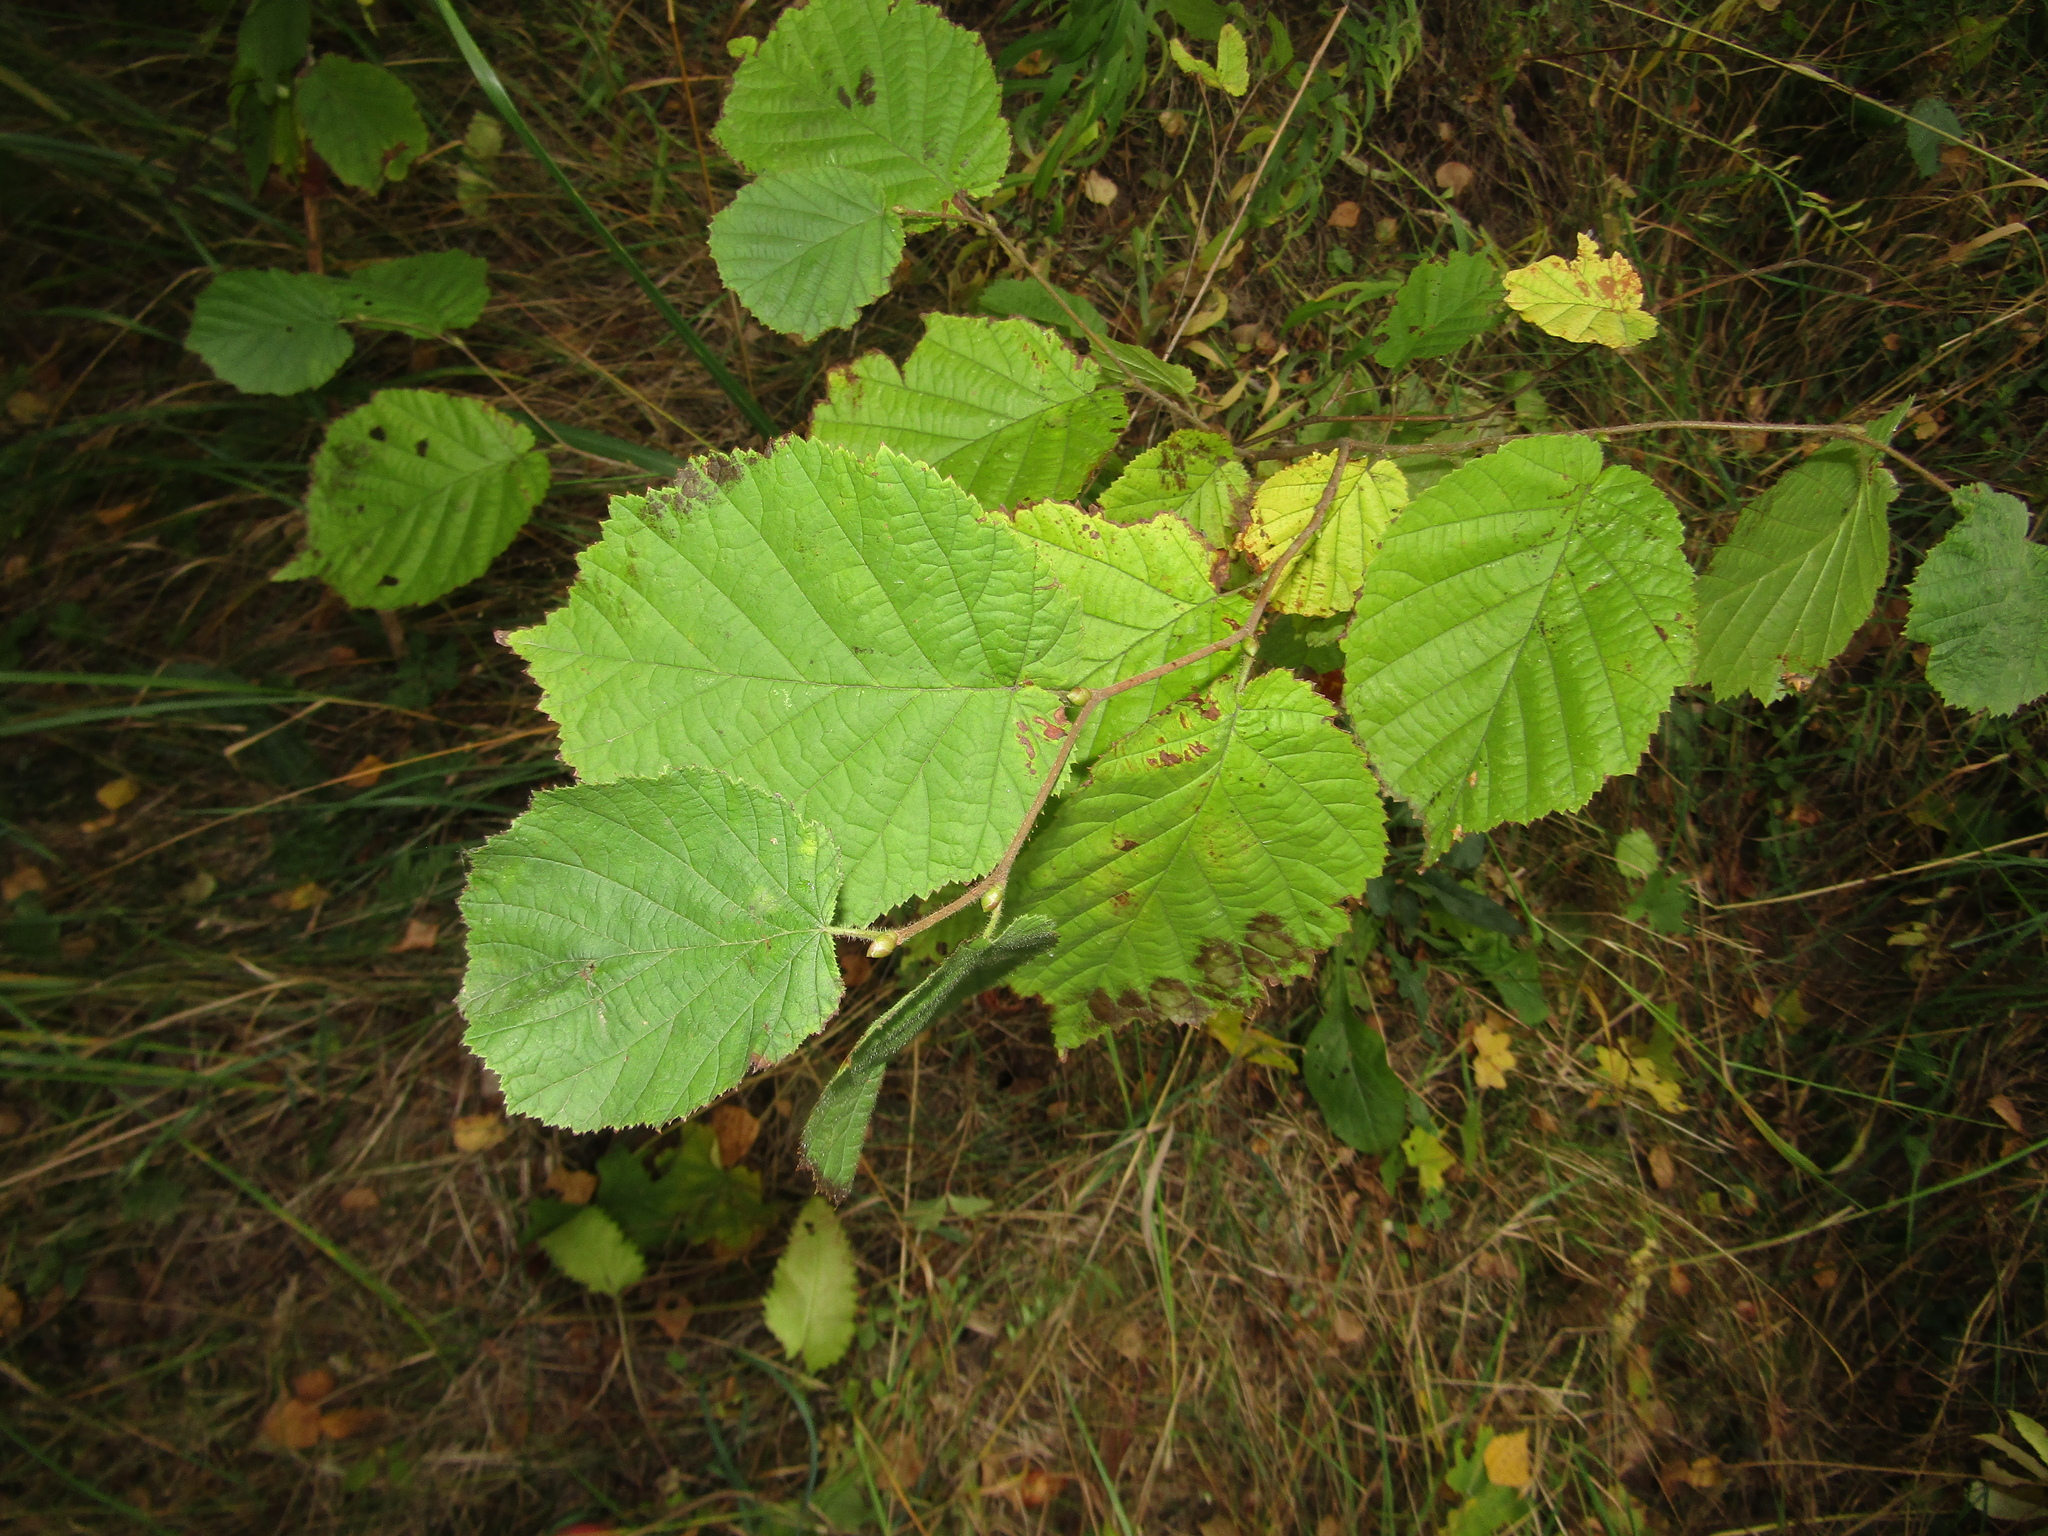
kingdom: Plantae
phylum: Tracheophyta
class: Magnoliopsida
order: Fagales
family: Betulaceae
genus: Corylus
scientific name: Corylus avellana
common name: European hazel
